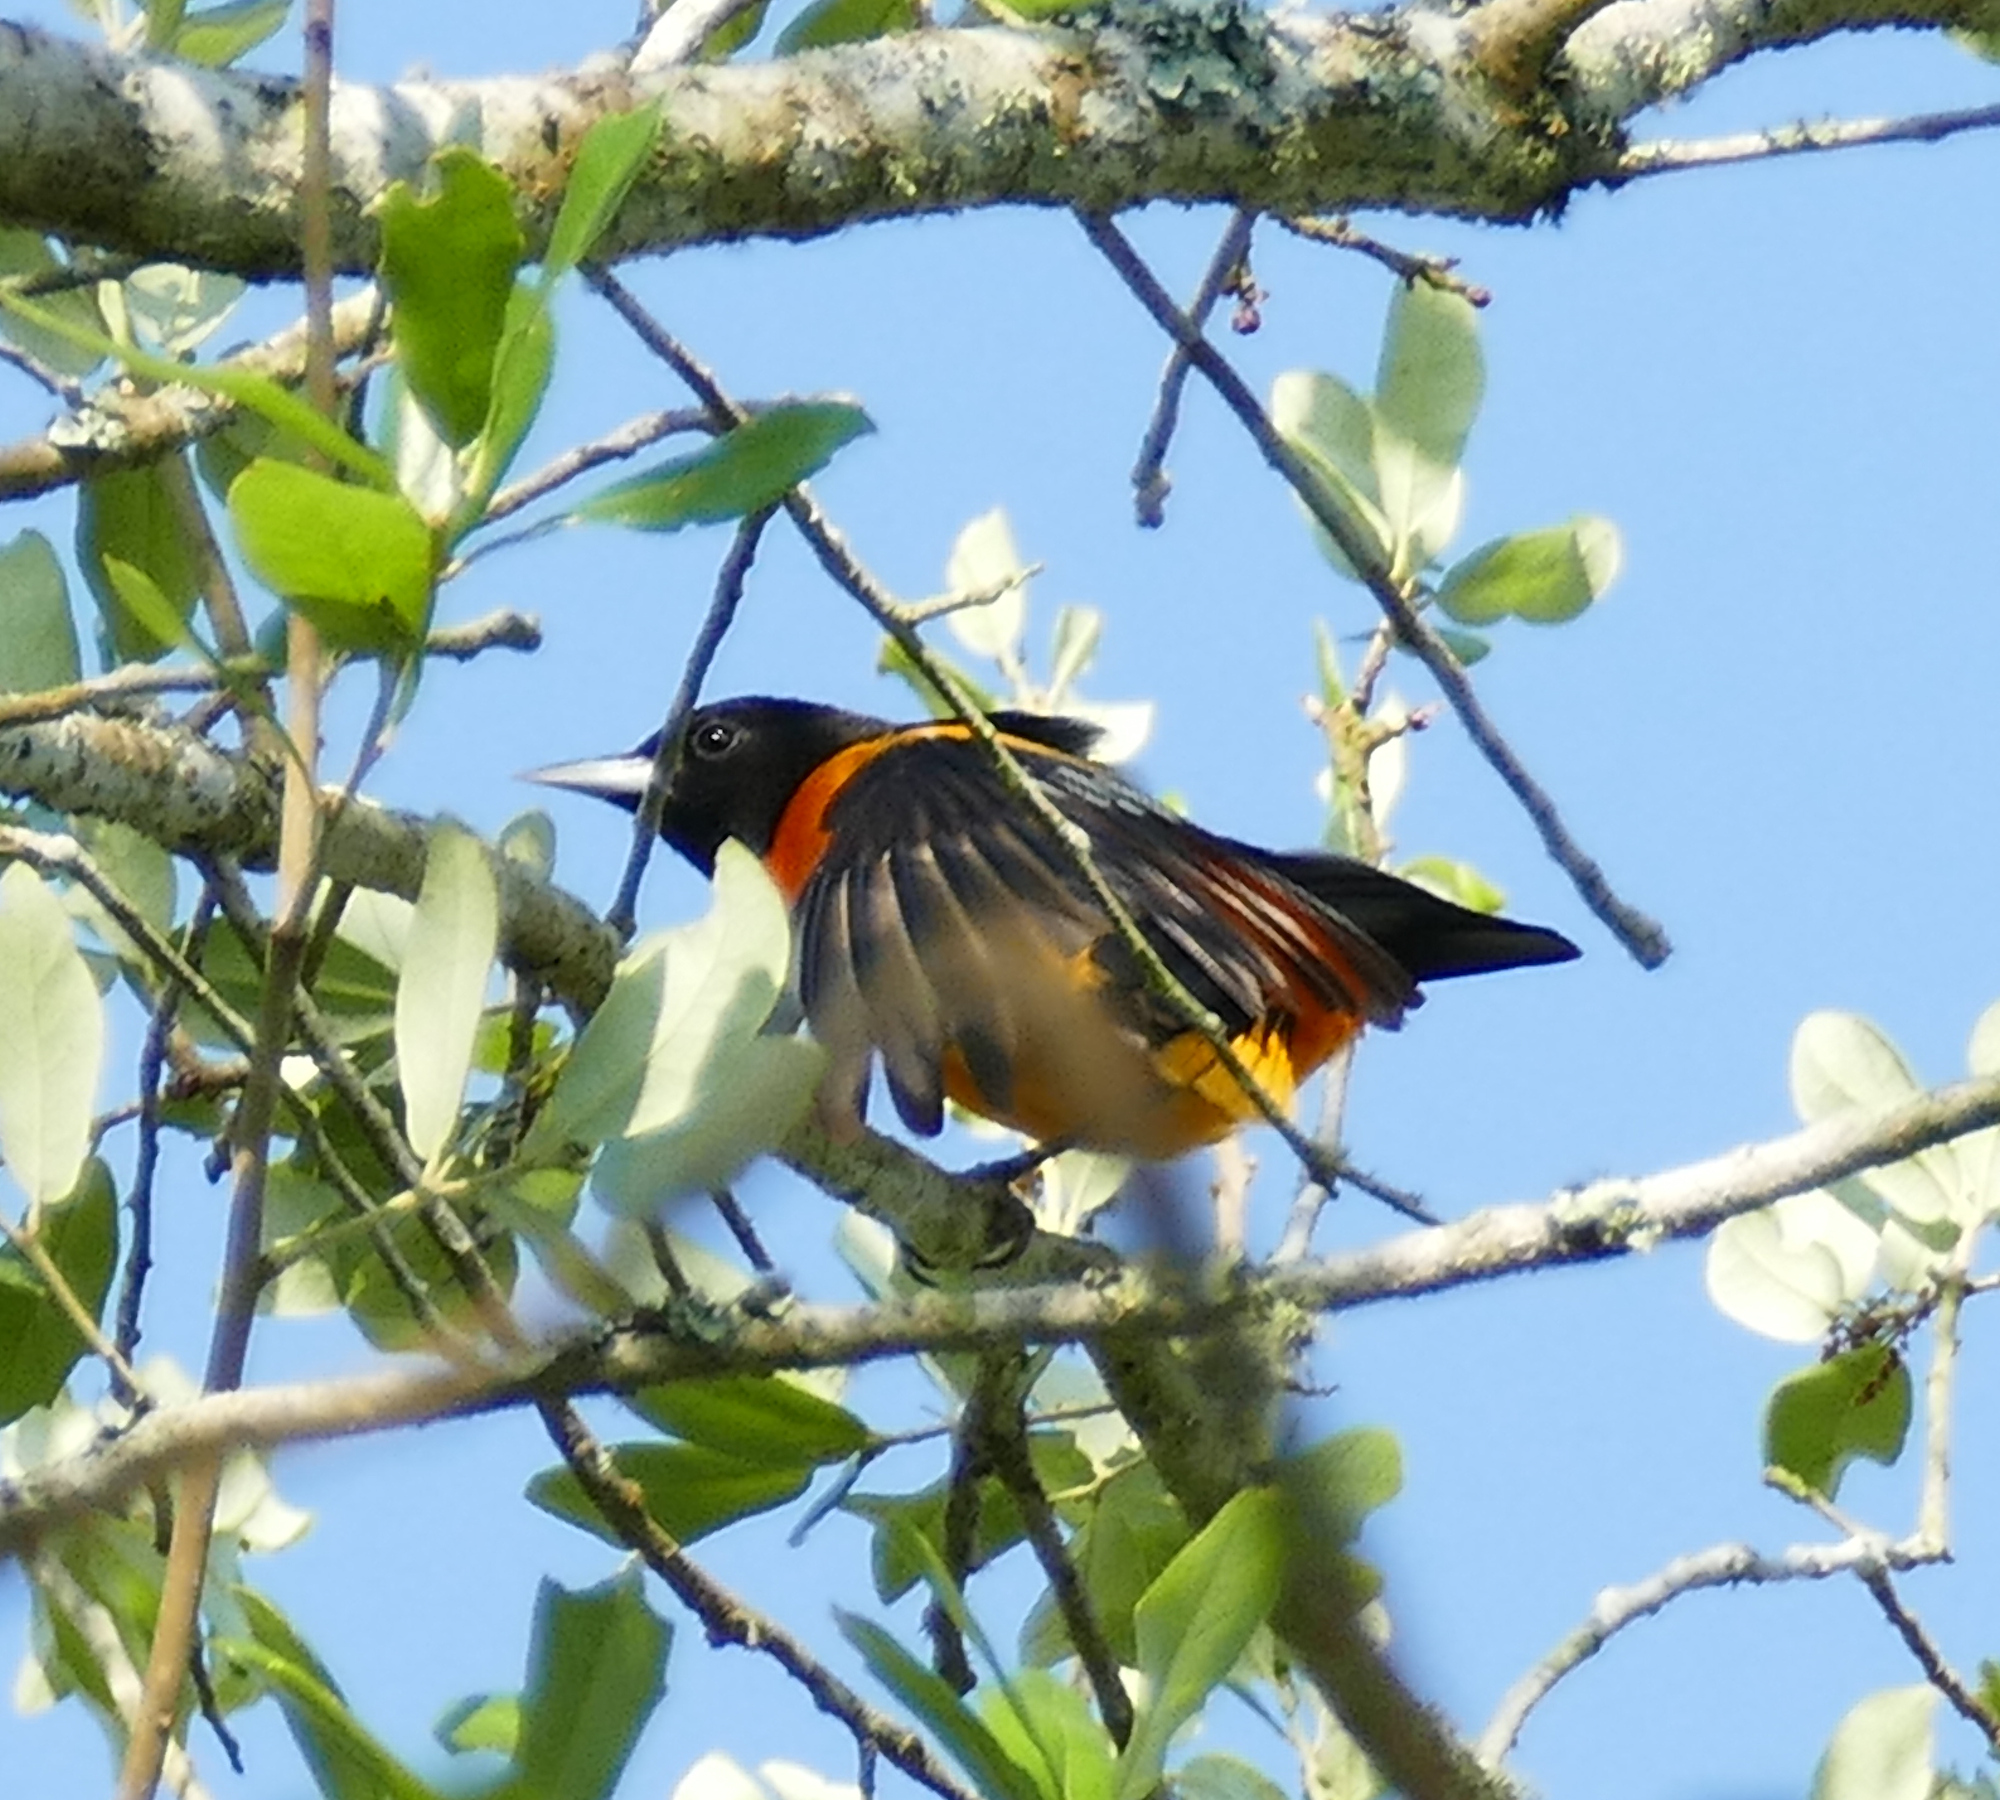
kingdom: Animalia
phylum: Chordata
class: Aves
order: Passeriformes
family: Icteridae
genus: Icterus
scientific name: Icterus galbula
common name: Baltimore oriole
